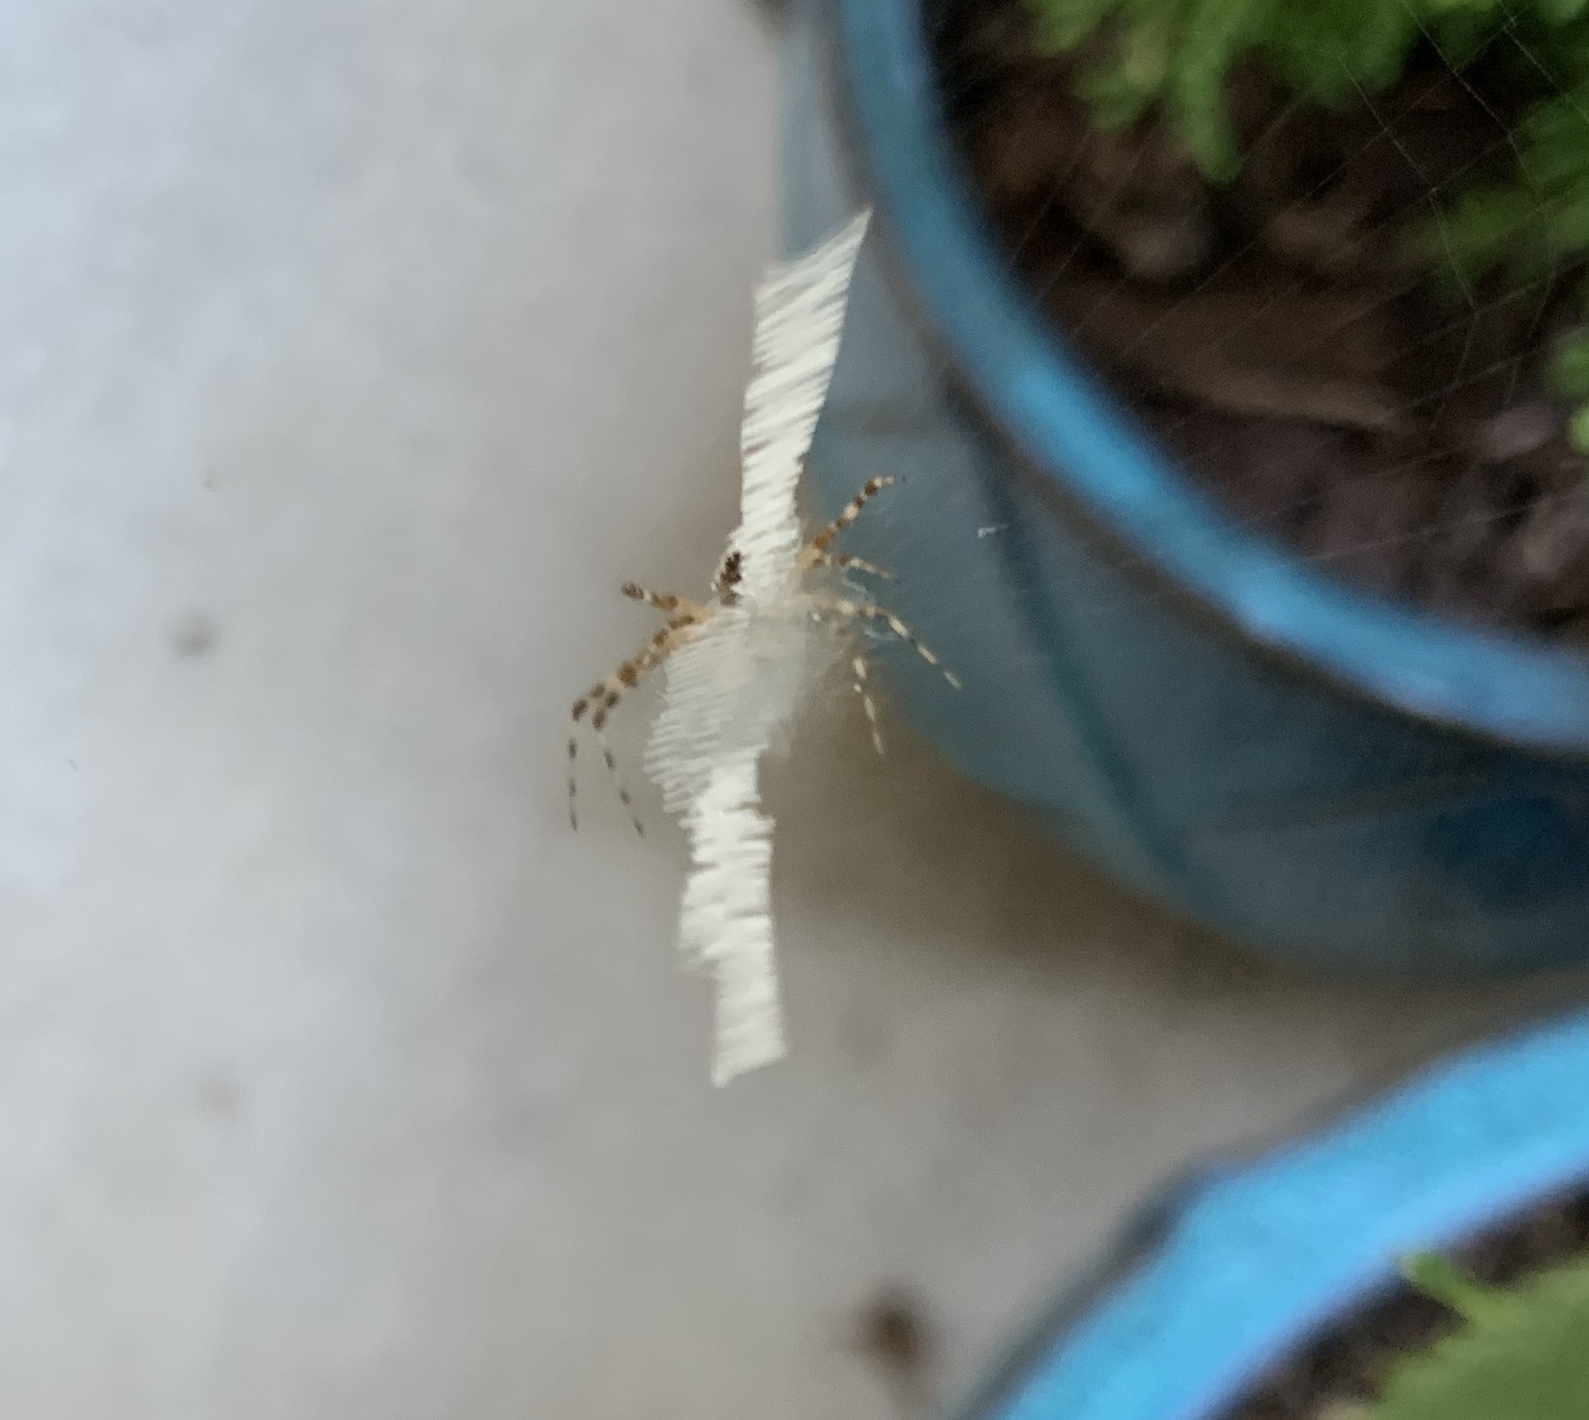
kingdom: Animalia
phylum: Arthropoda
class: Arachnida
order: Araneae
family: Araneidae
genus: Argiope
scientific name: Argiope aurantia
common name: Orb weavers
